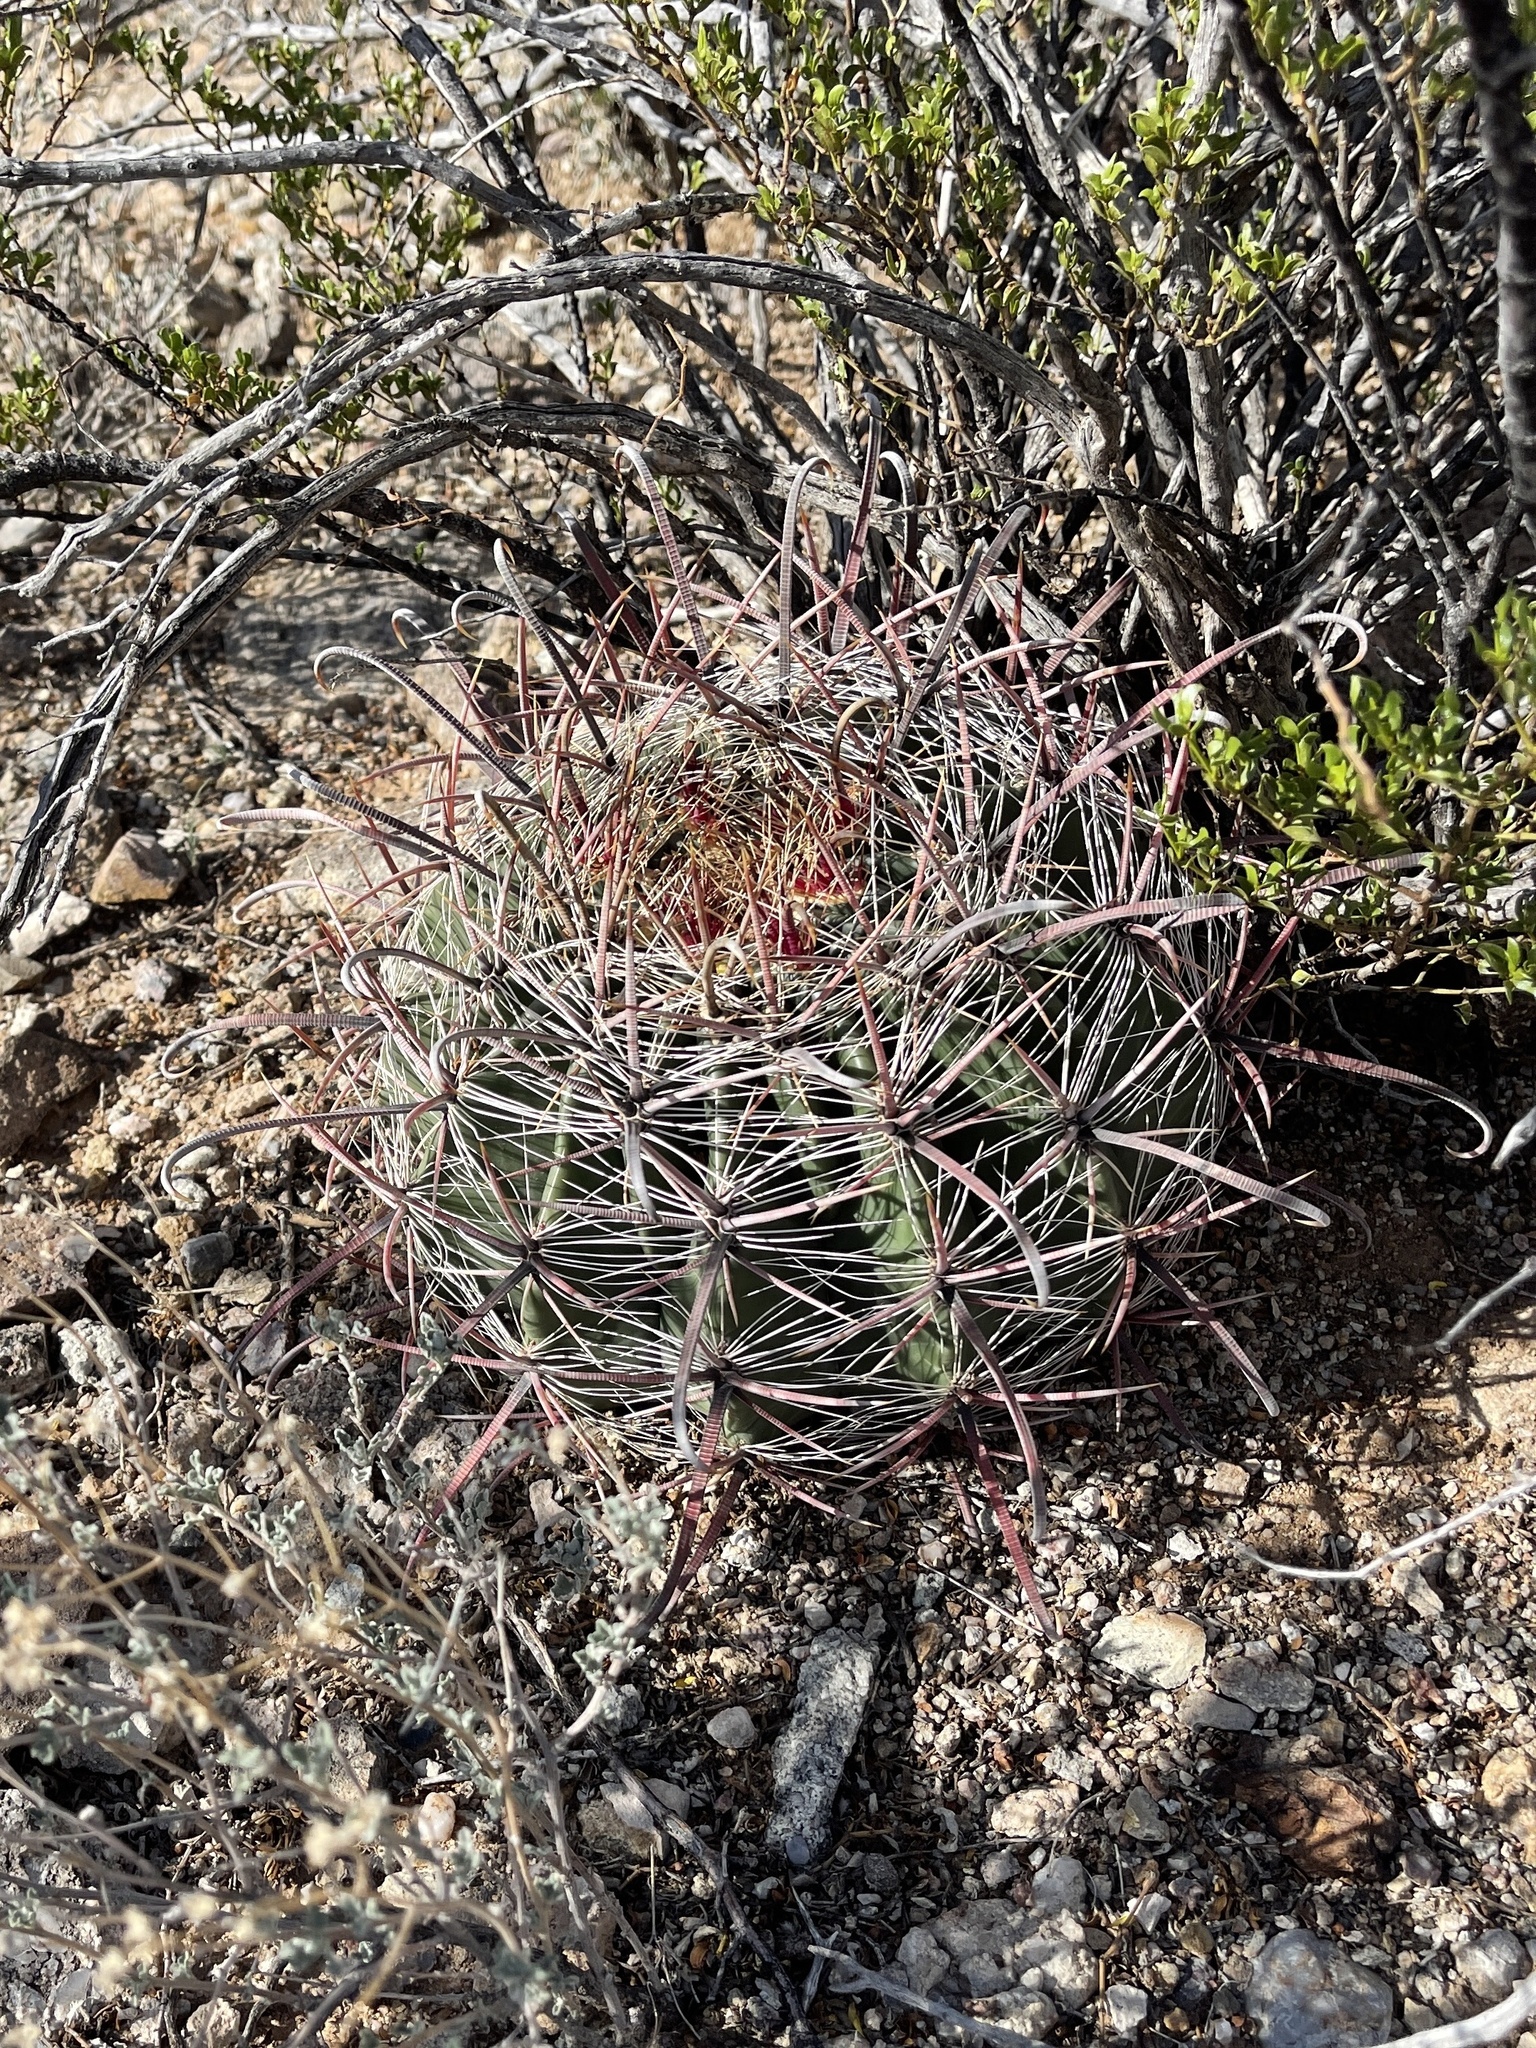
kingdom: Plantae
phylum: Tracheophyta
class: Magnoliopsida
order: Caryophyllales
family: Cactaceae
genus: Ferocactus
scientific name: Ferocactus wislizeni
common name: Candy barrel cactus
